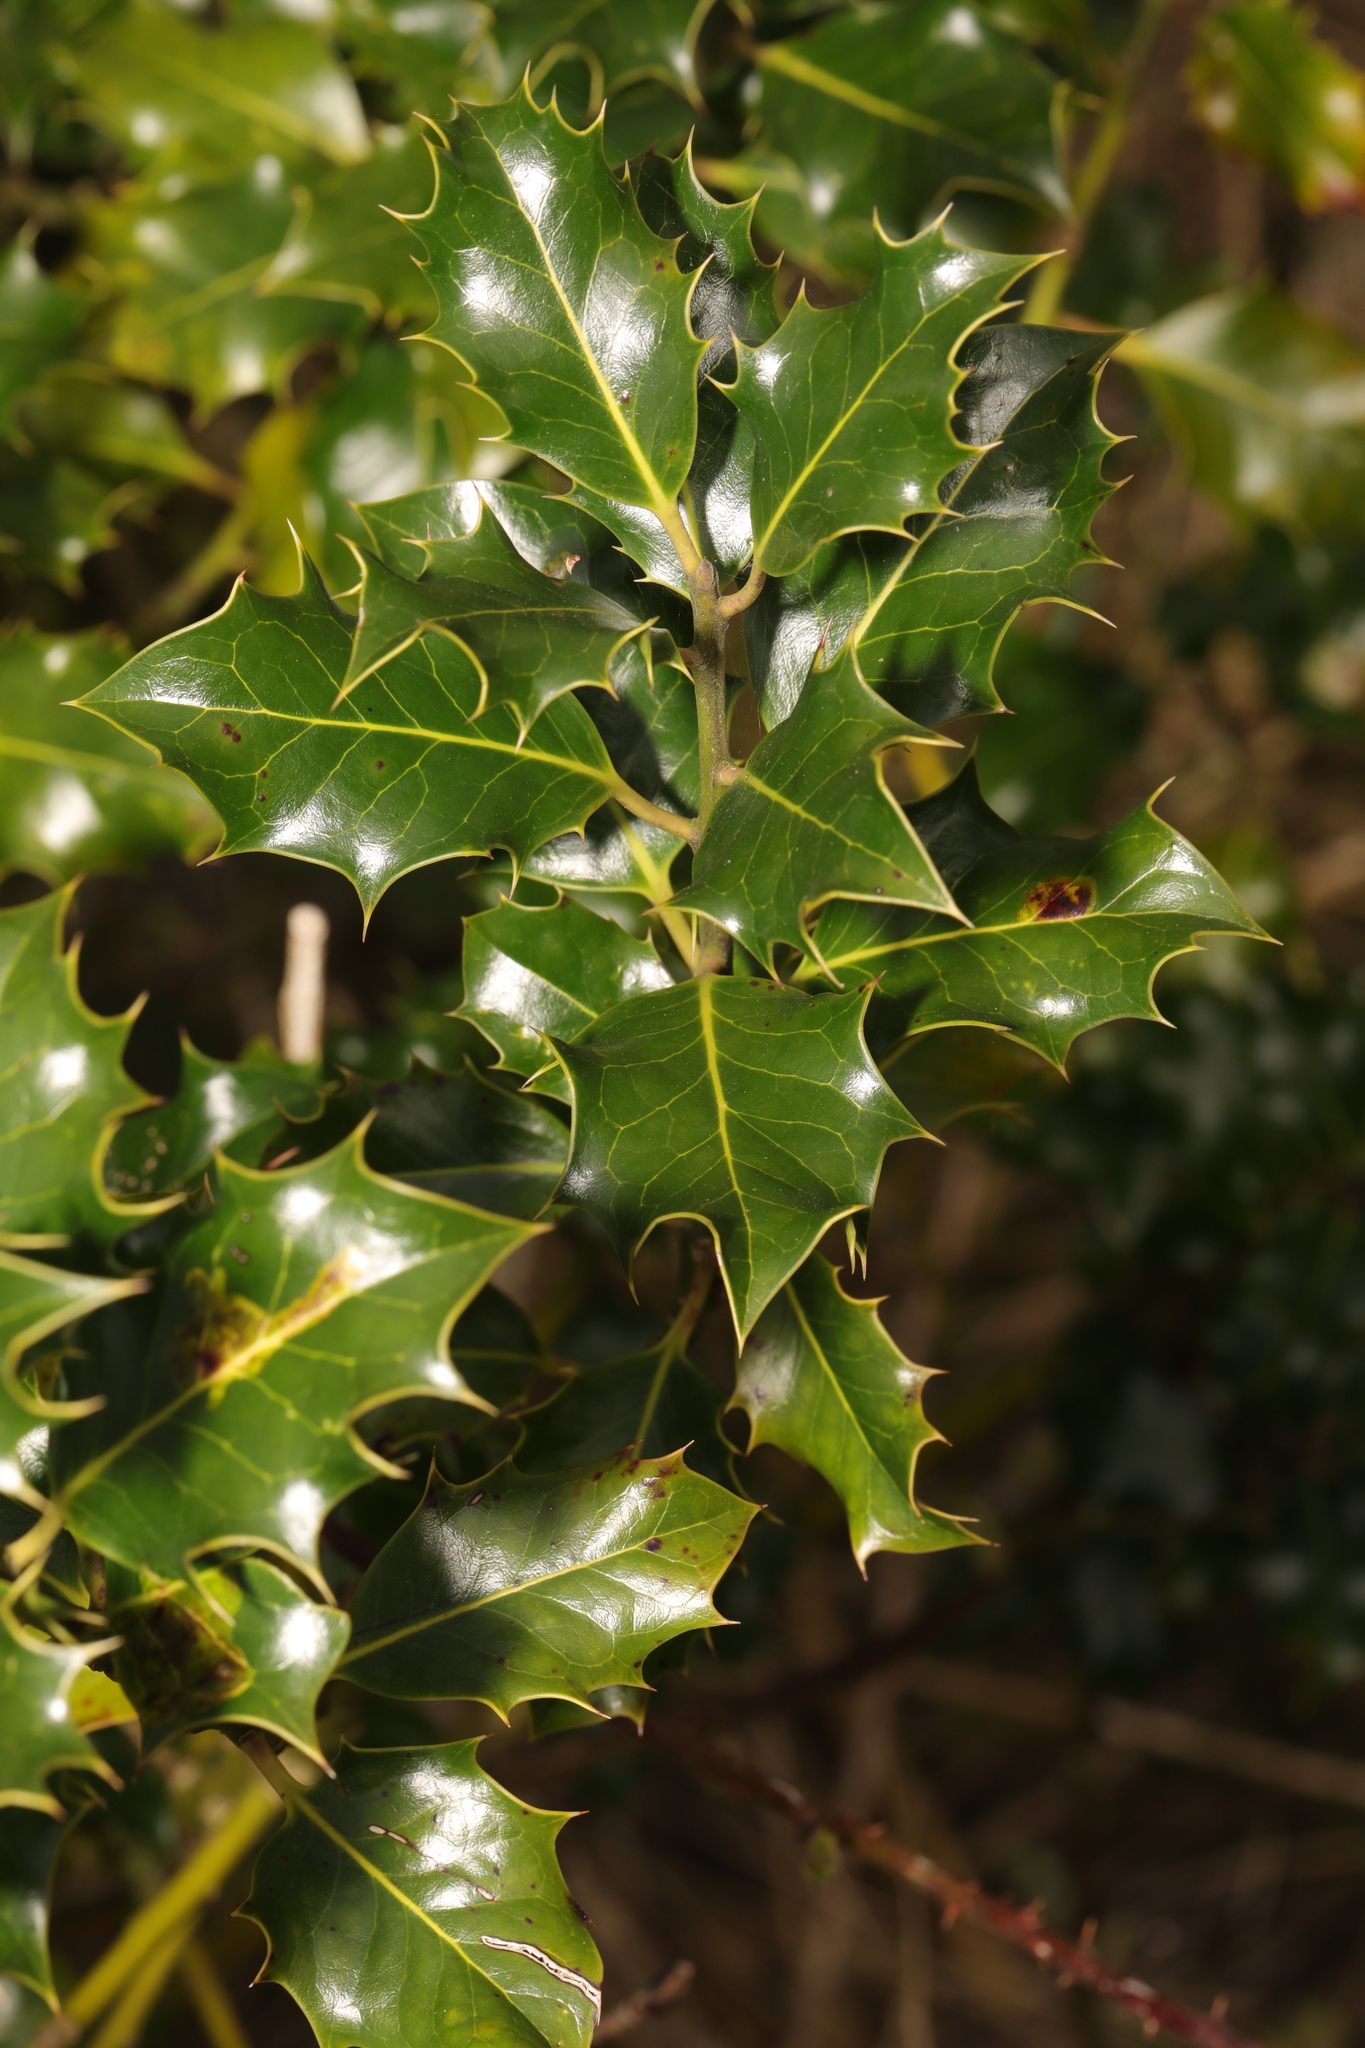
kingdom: Plantae
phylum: Tracheophyta
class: Magnoliopsida
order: Aquifoliales
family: Aquifoliaceae
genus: Ilex
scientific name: Ilex aquifolium
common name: English holly
